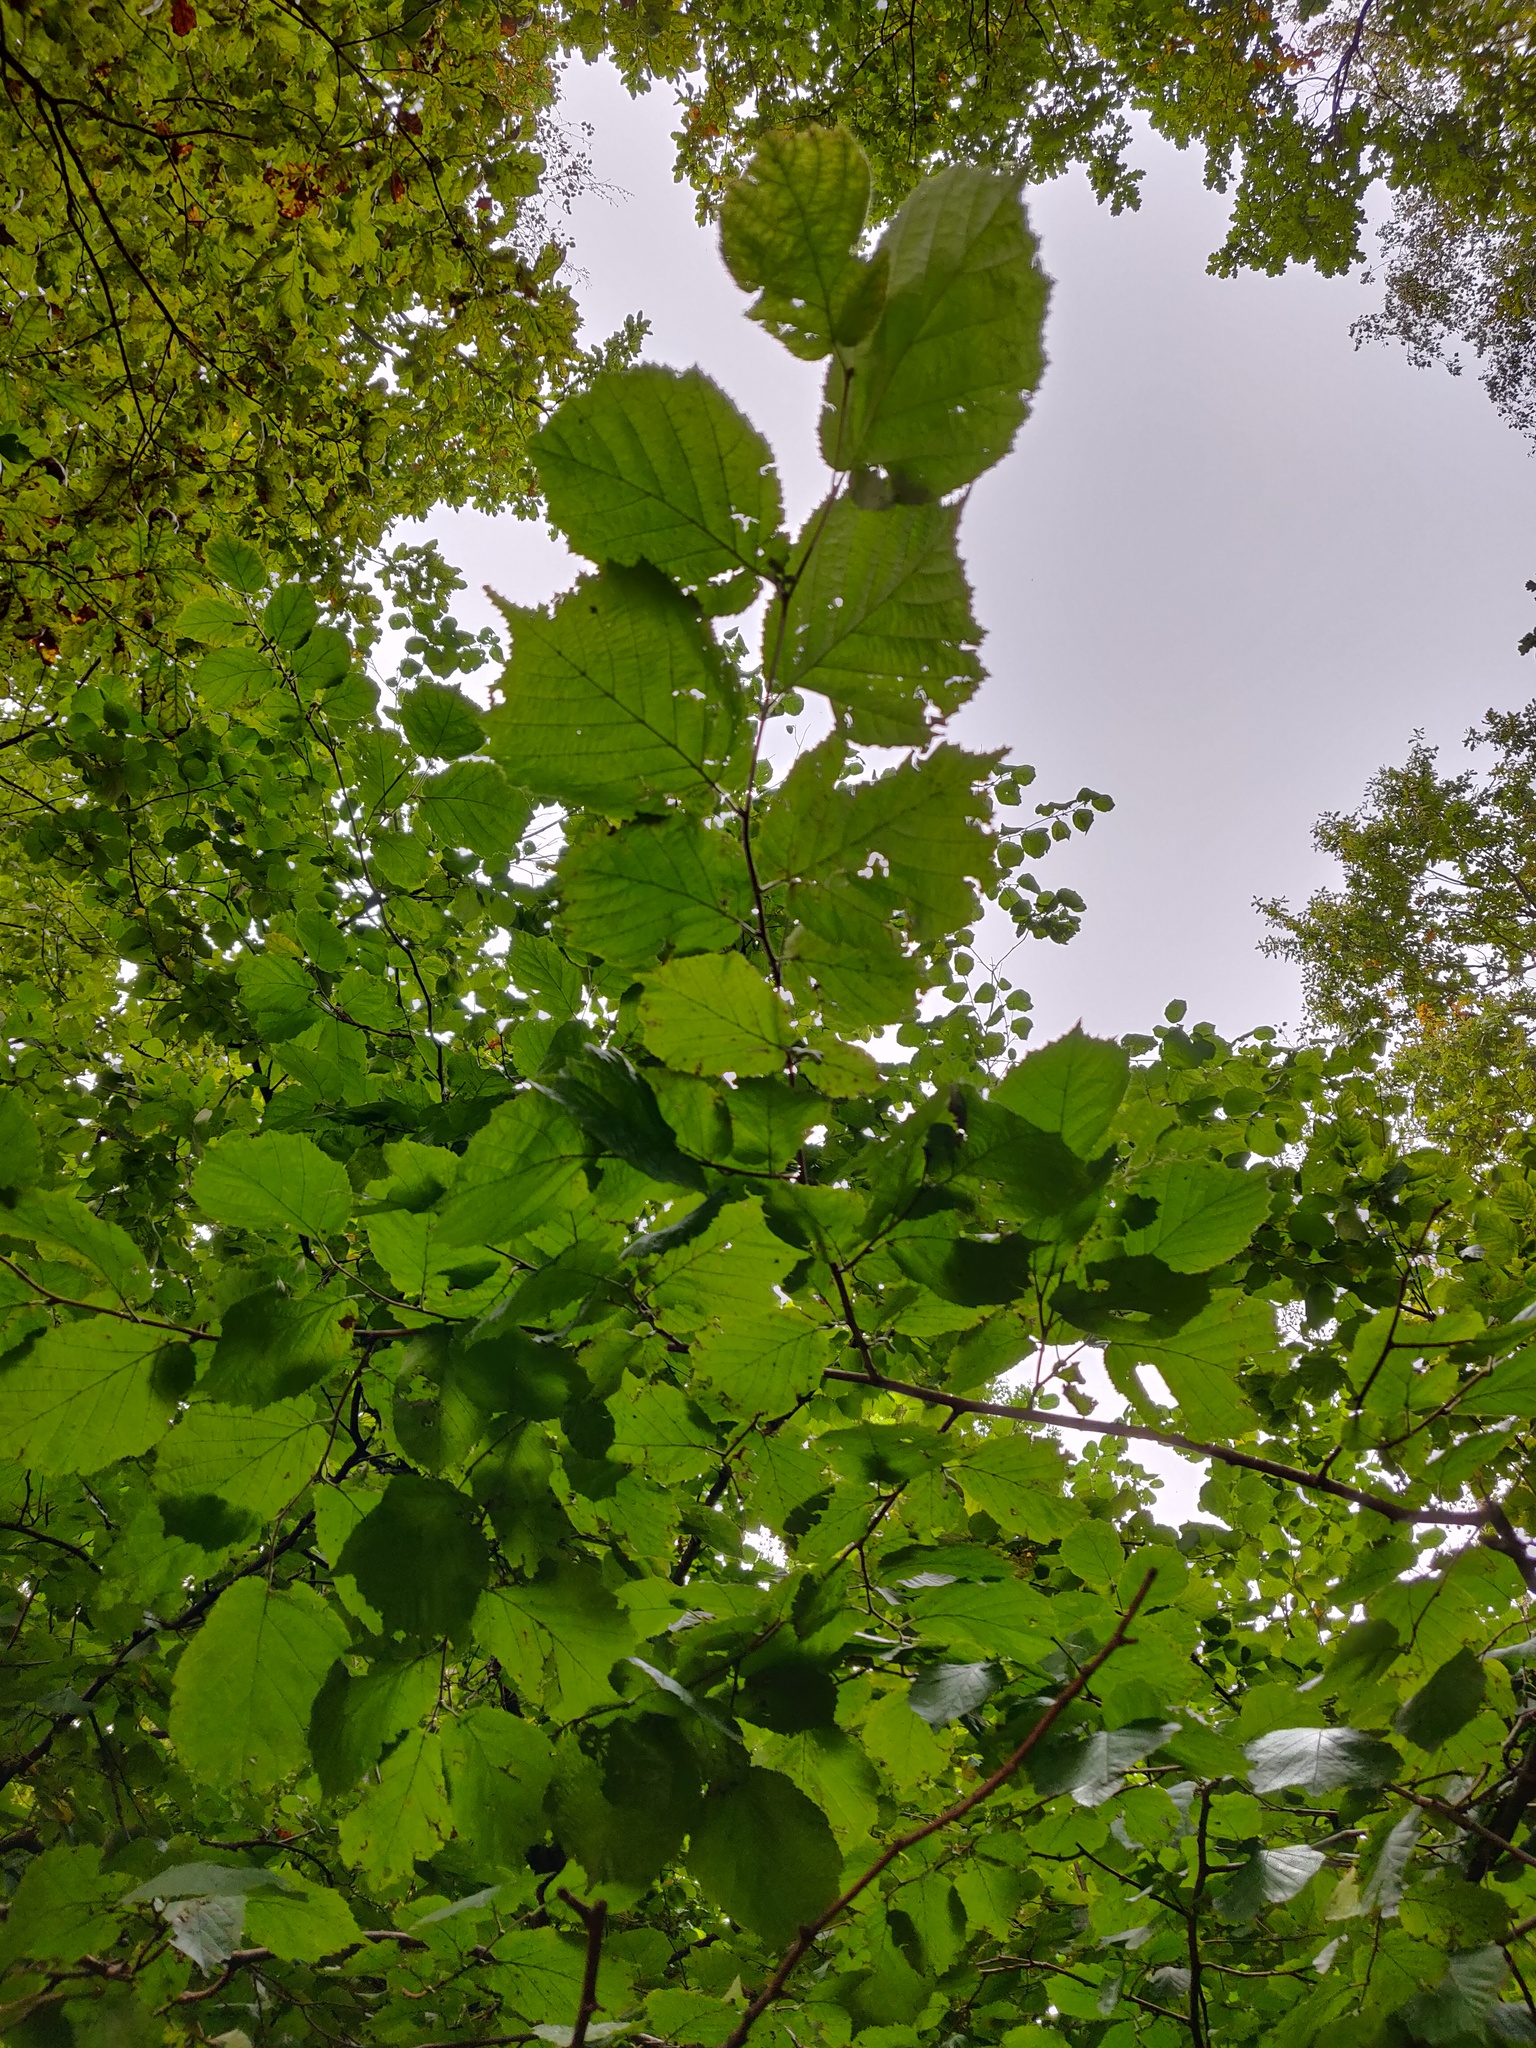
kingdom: Plantae
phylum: Tracheophyta
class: Magnoliopsida
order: Fagales
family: Betulaceae
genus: Corylus
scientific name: Corylus avellana
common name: European hazel
